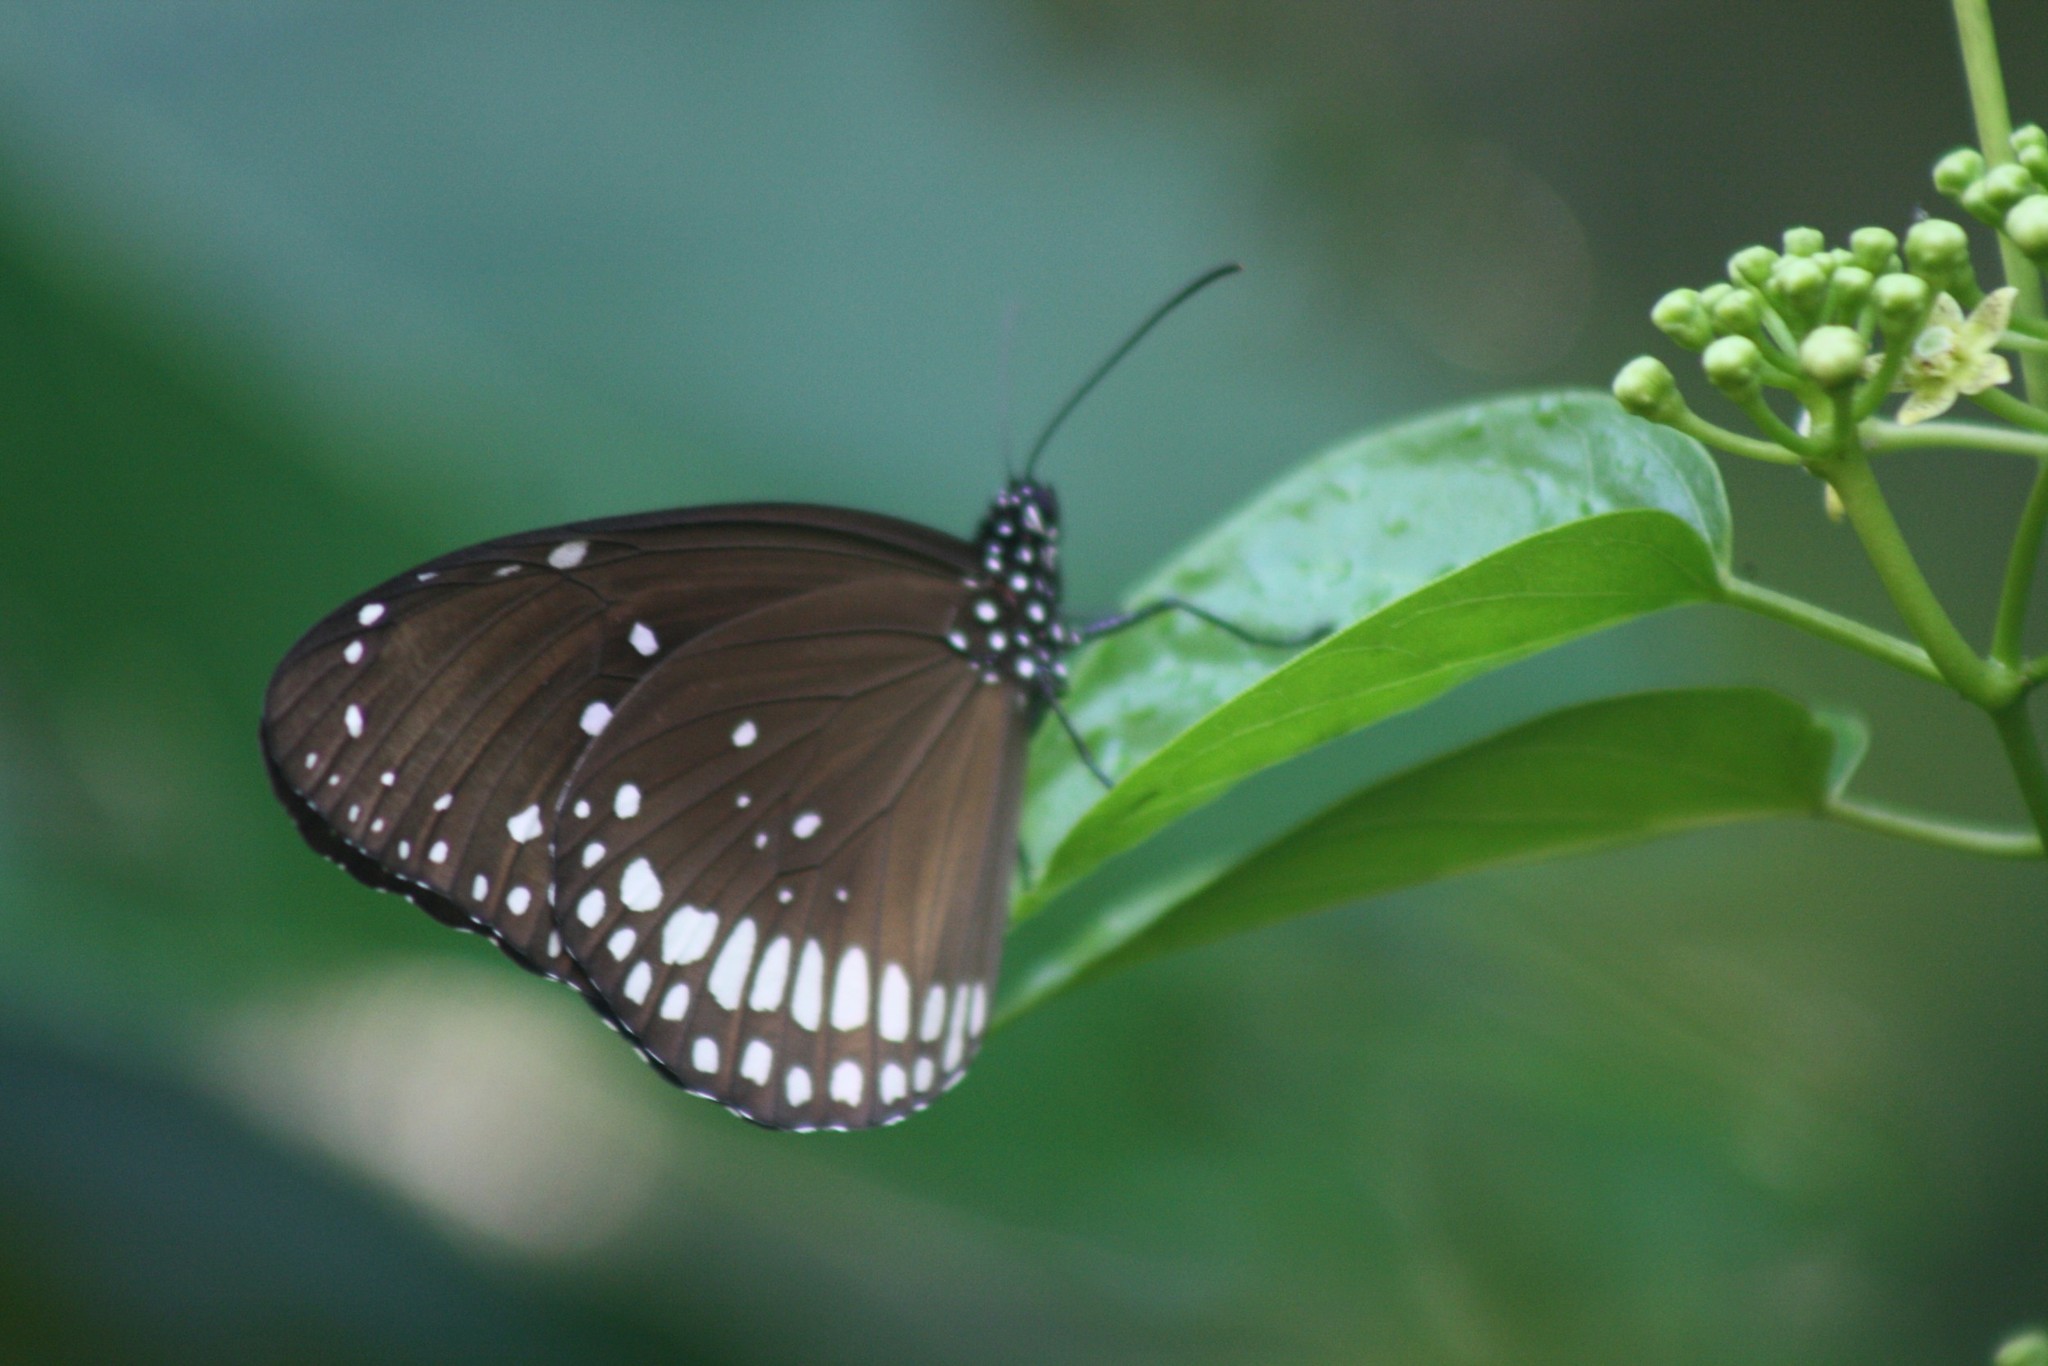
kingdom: Animalia
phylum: Arthropoda
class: Insecta
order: Lepidoptera
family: Nymphalidae
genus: Euploea
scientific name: Euploea core
